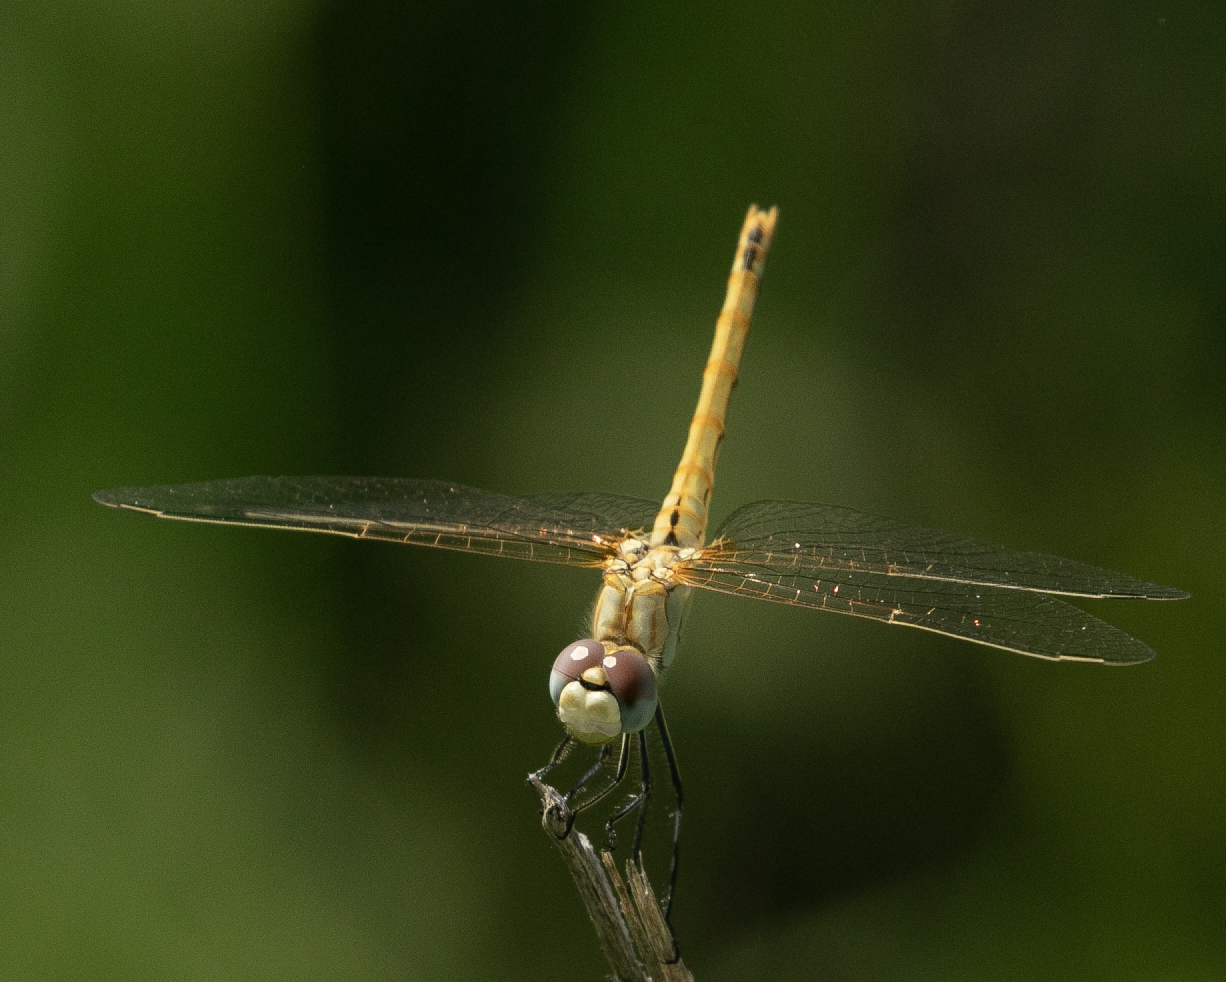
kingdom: Animalia
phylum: Arthropoda
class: Insecta
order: Odonata
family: Libellulidae
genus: Sympetrum
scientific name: Sympetrum fonscolombii
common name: Red-veined darter
